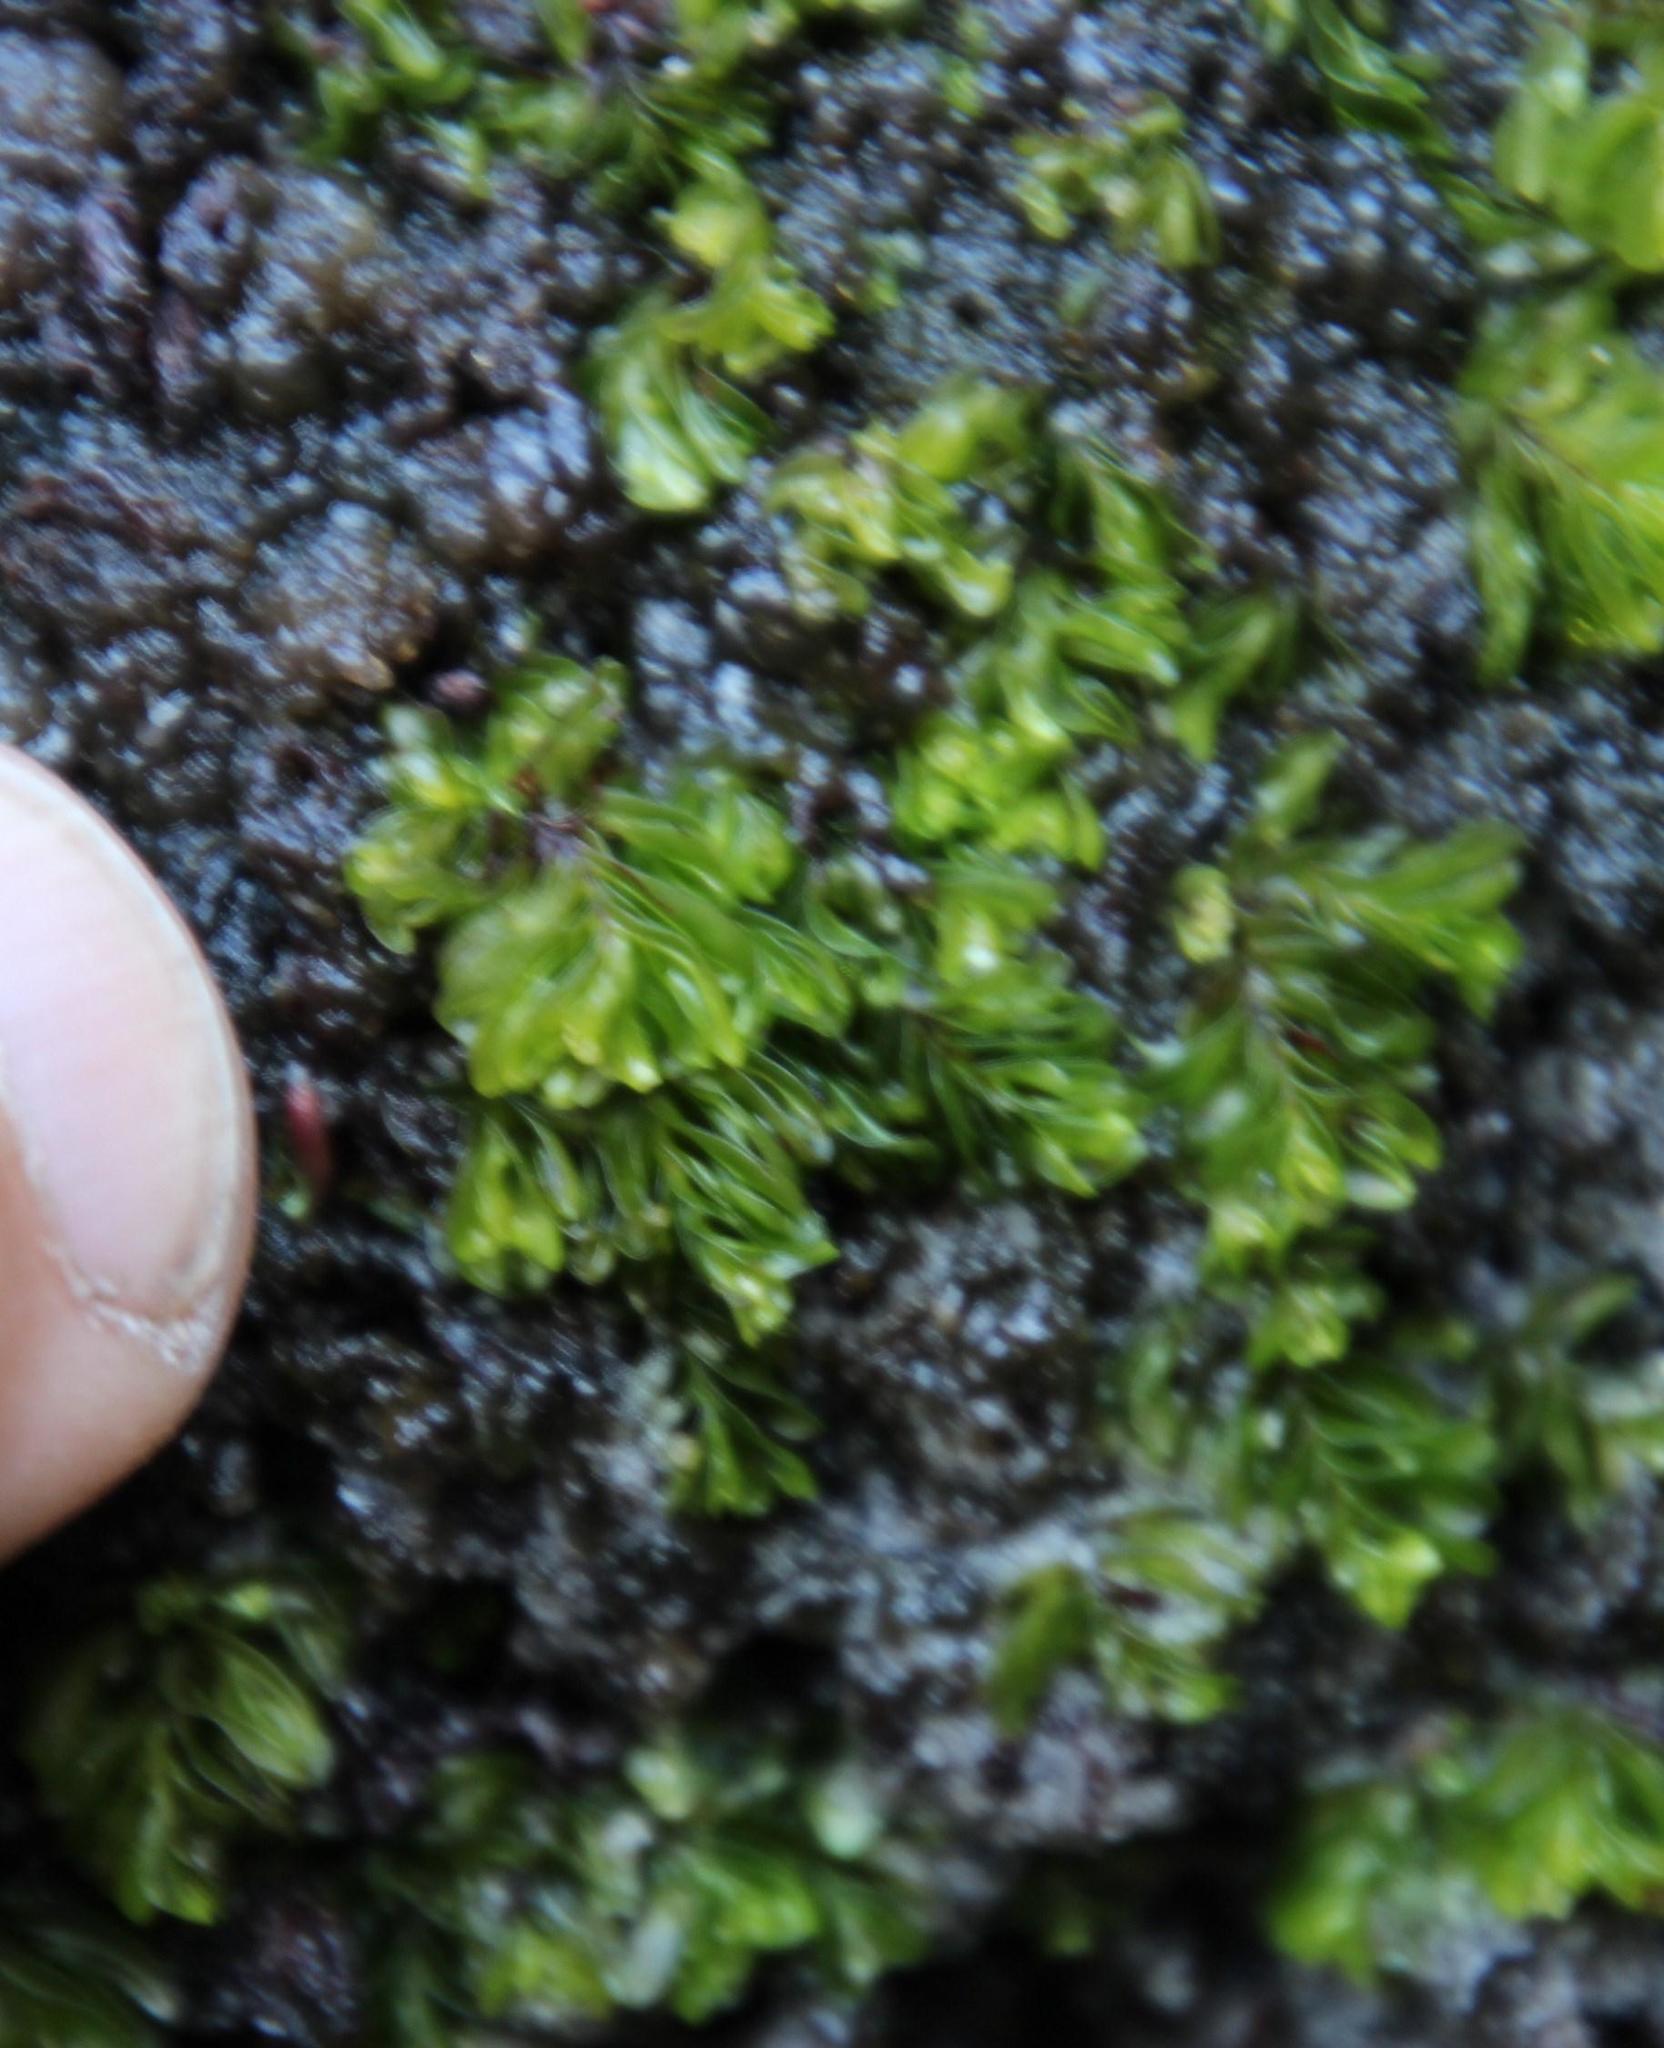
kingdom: Plantae
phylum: Tracheophyta
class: Polypodiopsida
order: Hymenophyllales
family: Hymenophyllaceae
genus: Hymenophyllum
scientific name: Hymenophyllum capense
